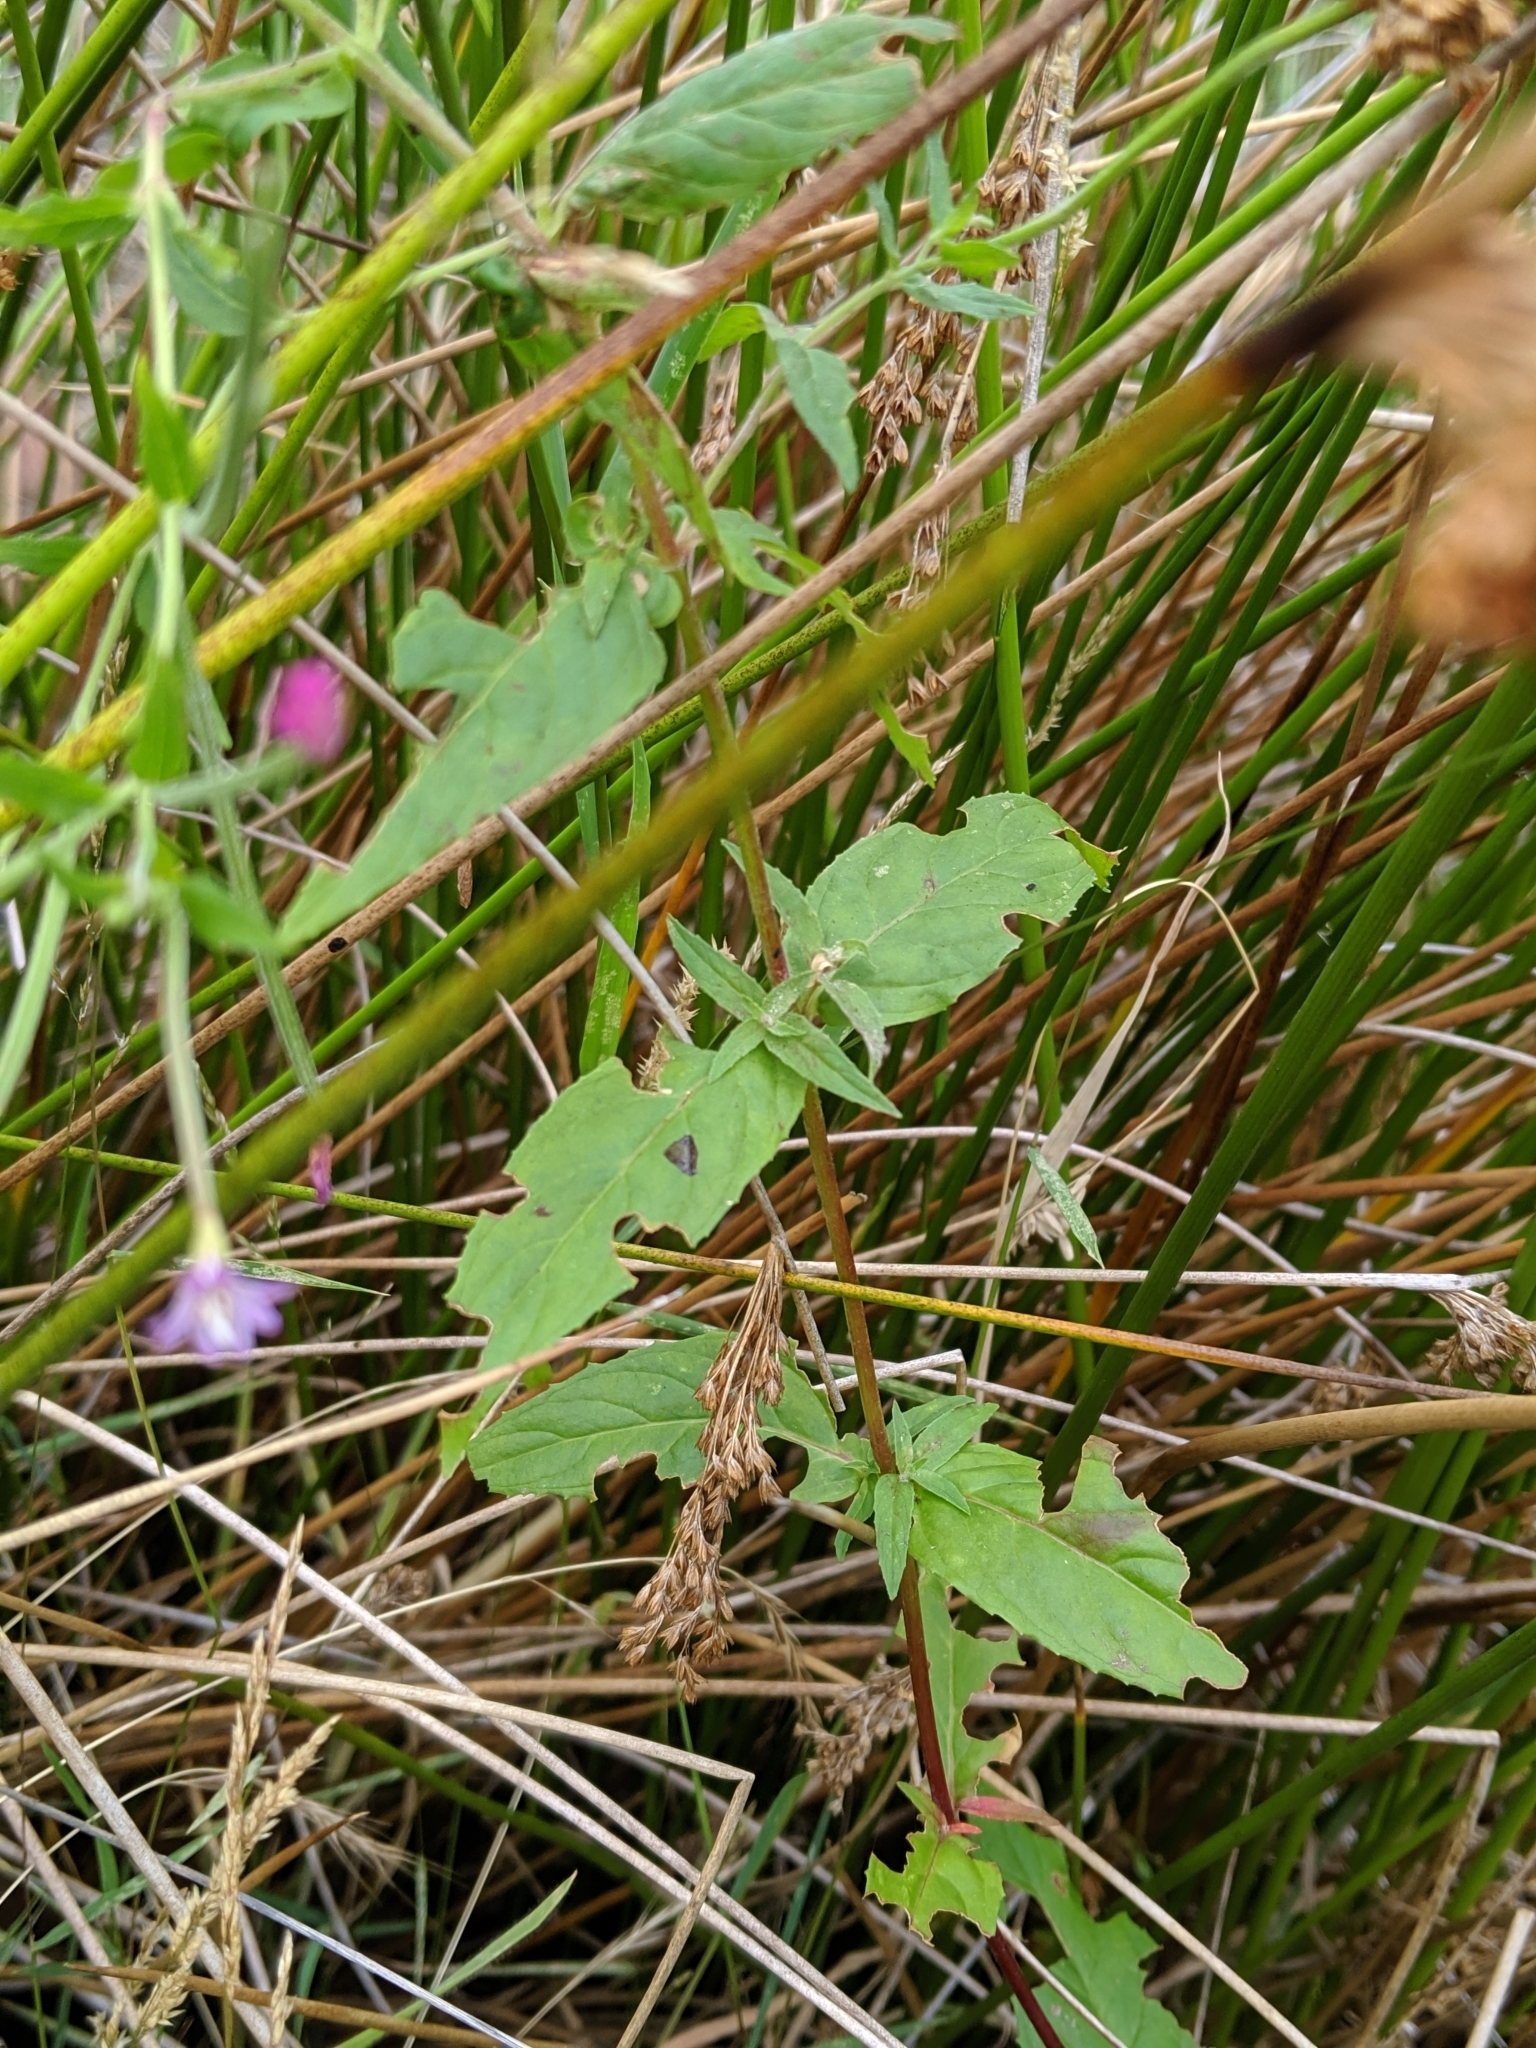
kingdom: Plantae
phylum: Tracheophyta
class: Magnoliopsida
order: Myrtales
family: Onagraceae
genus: Epilobium
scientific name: Epilobium ciliatum
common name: American willowherb
